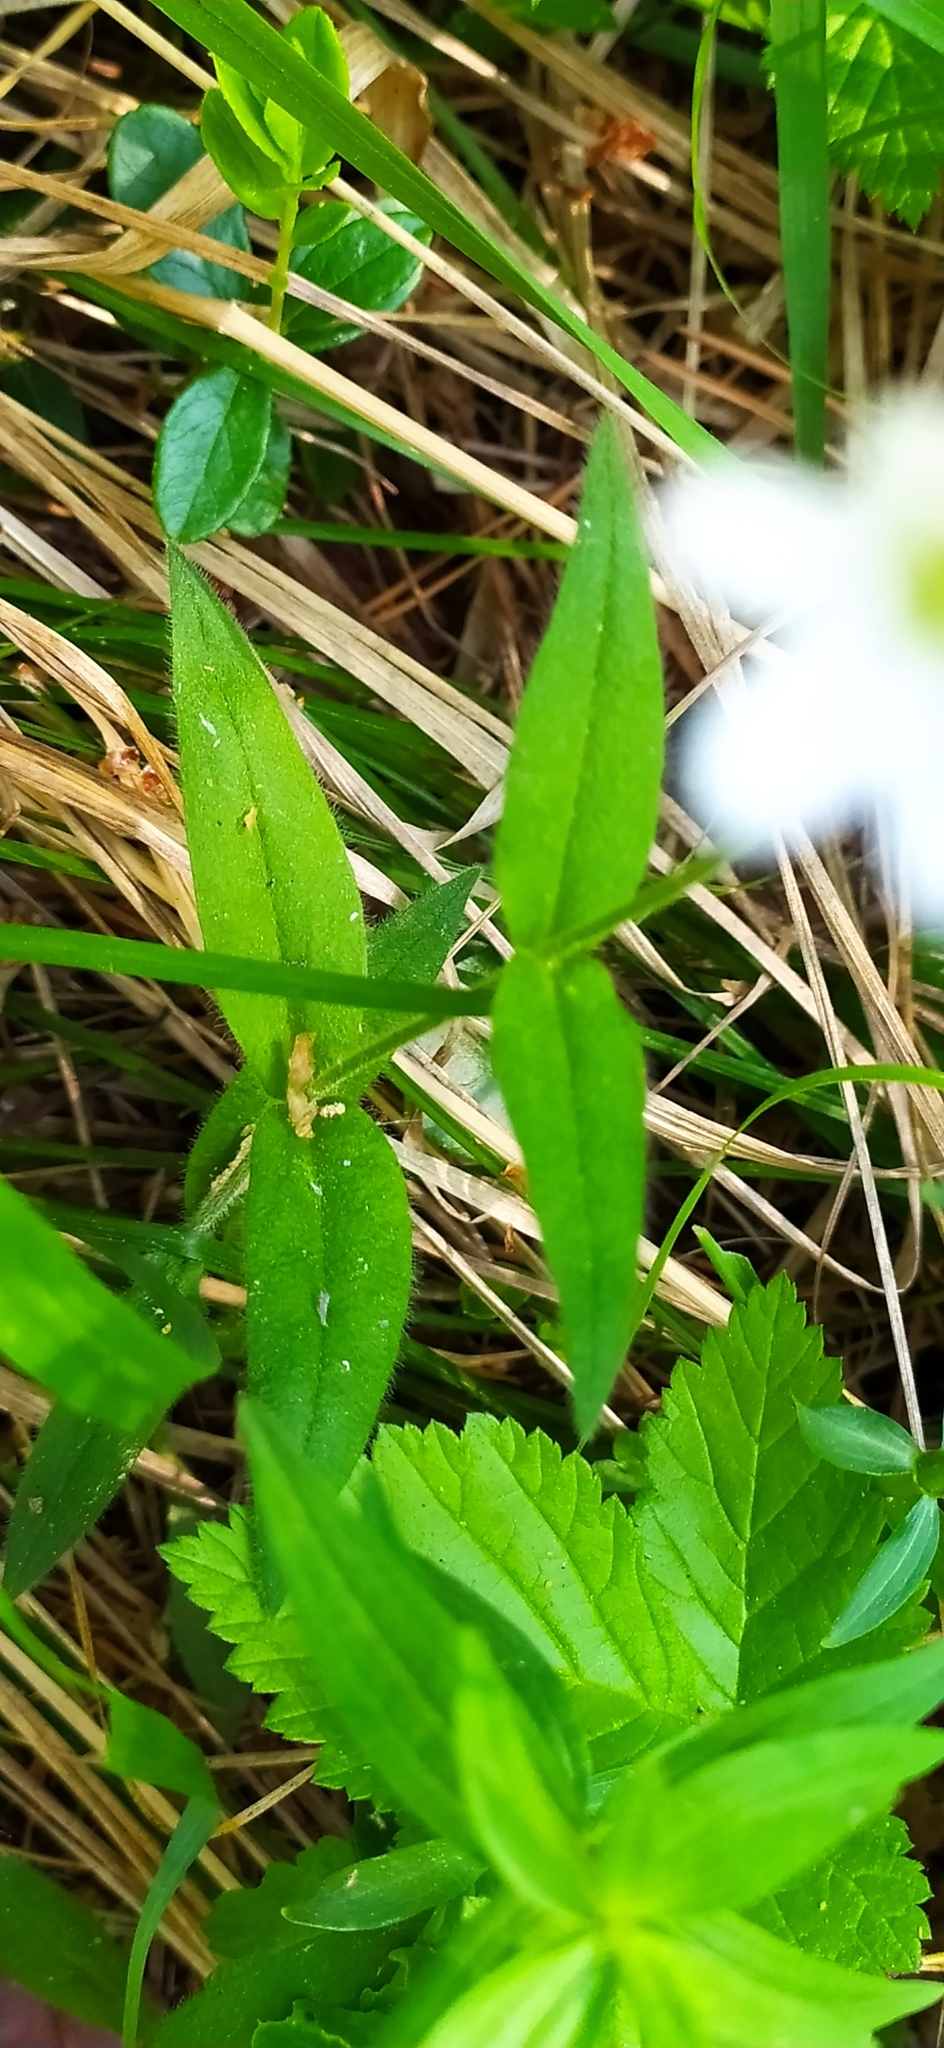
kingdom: Plantae
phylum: Tracheophyta
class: Magnoliopsida
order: Caryophyllales
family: Caryophyllaceae
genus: Cerastium
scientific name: Cerastium pauciflorum
